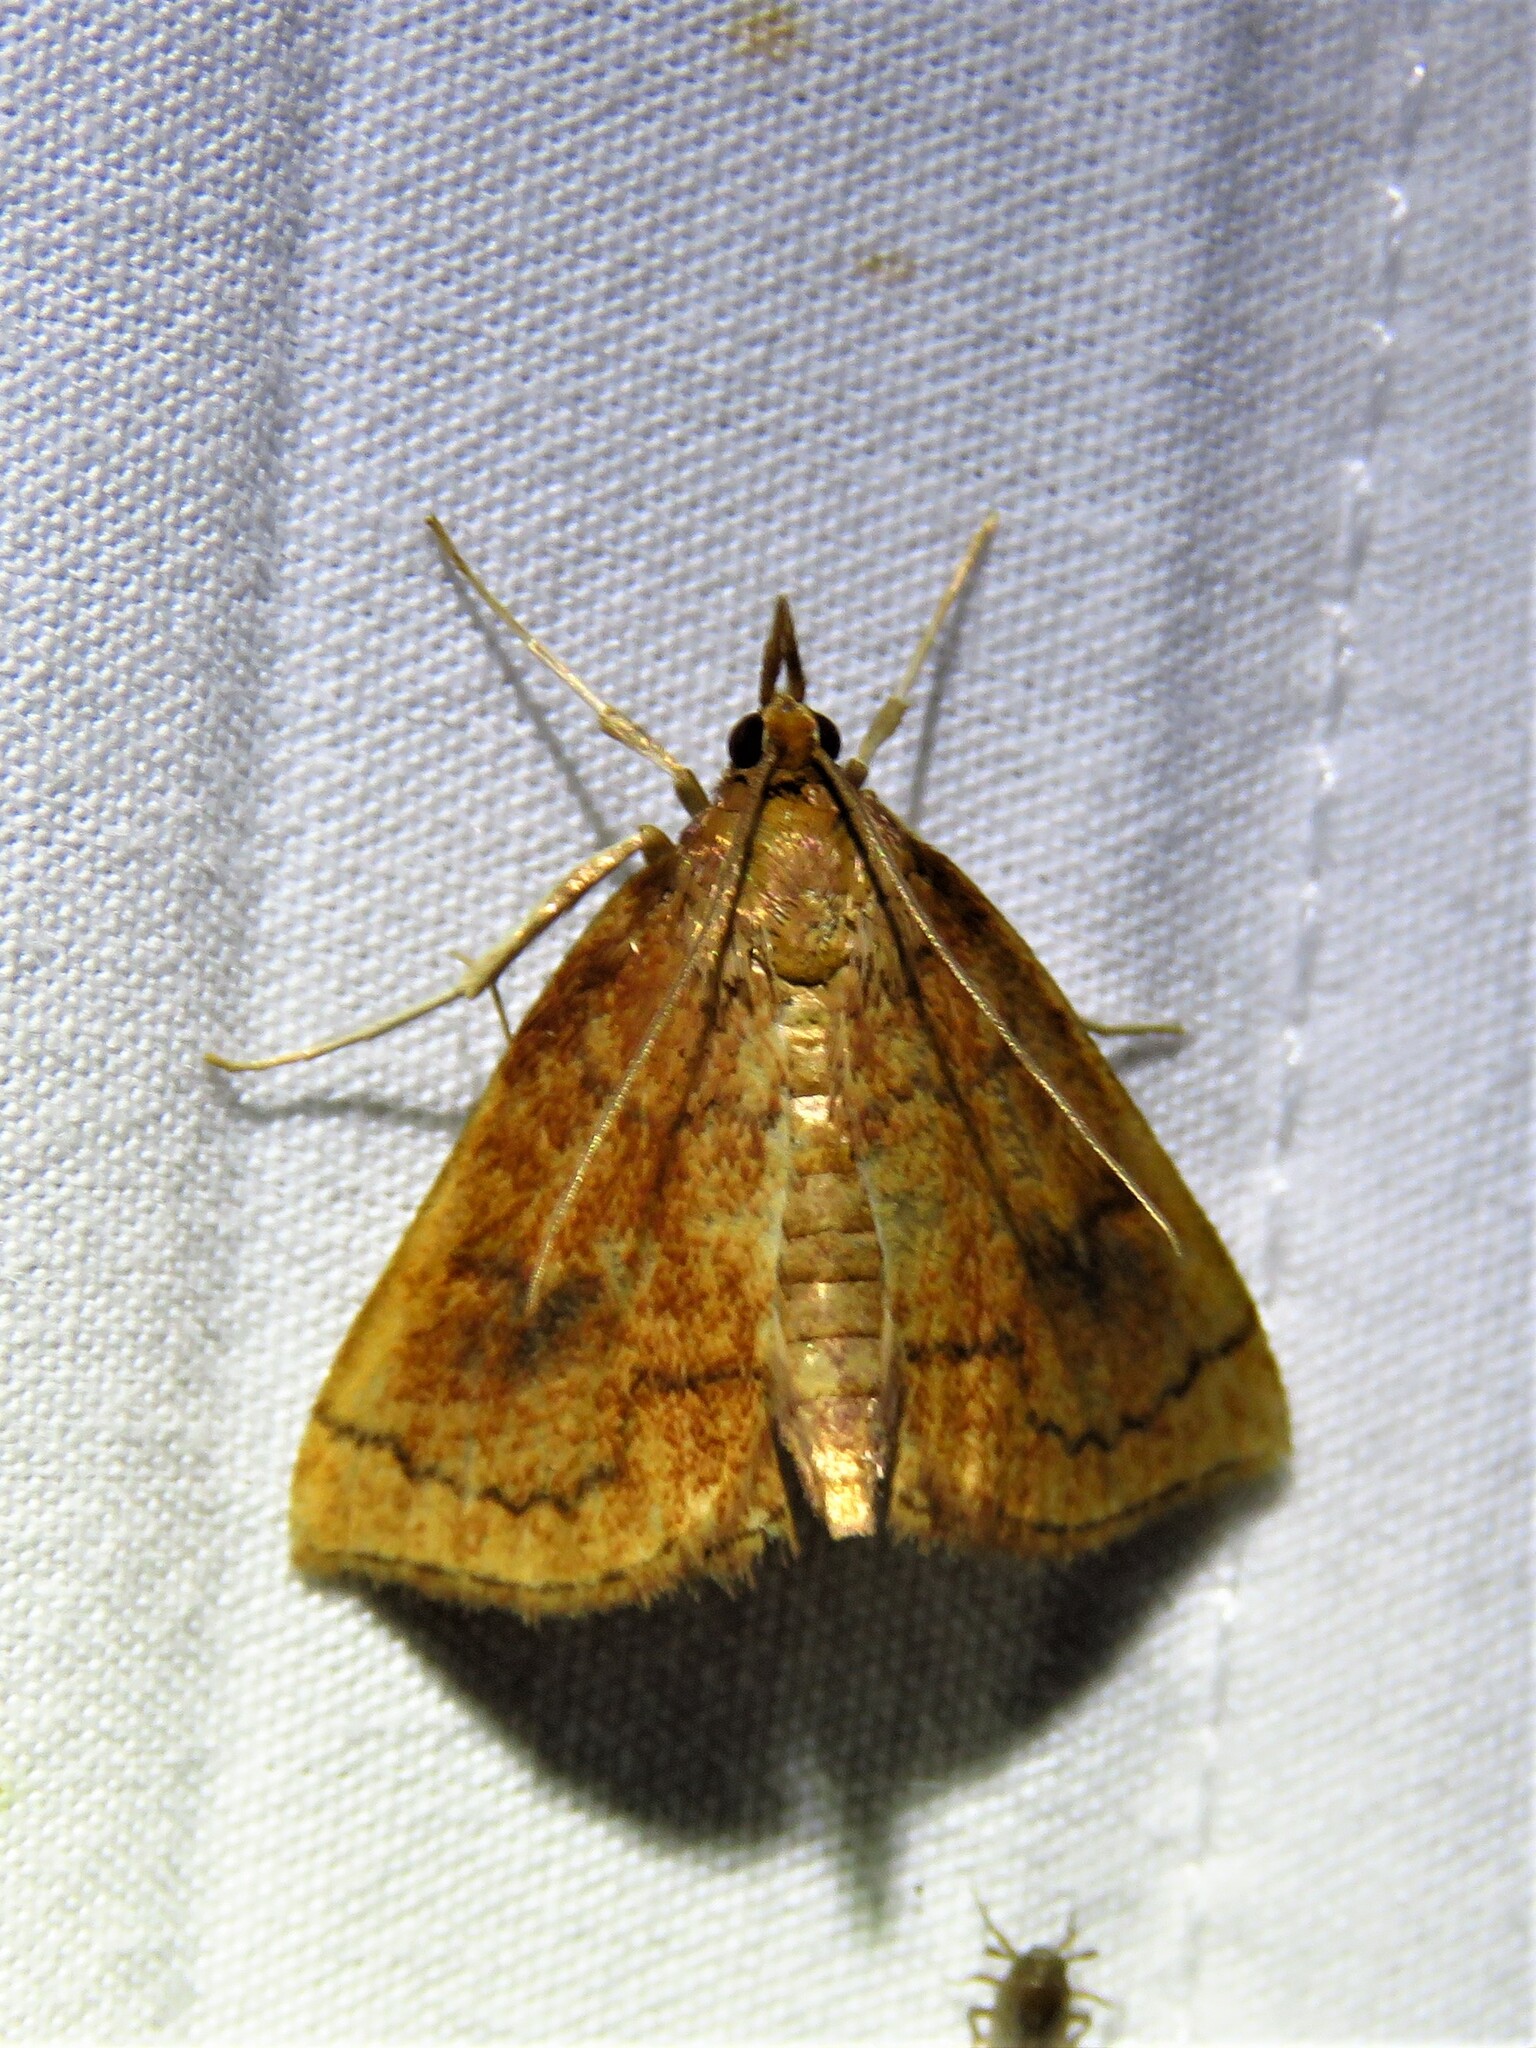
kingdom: Animalia
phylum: Arthropoda
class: Insecta
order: Lepidoptera
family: Crambidae
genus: Fumibotys
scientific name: Fumibotys fumalis
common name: Mint root borer moth
